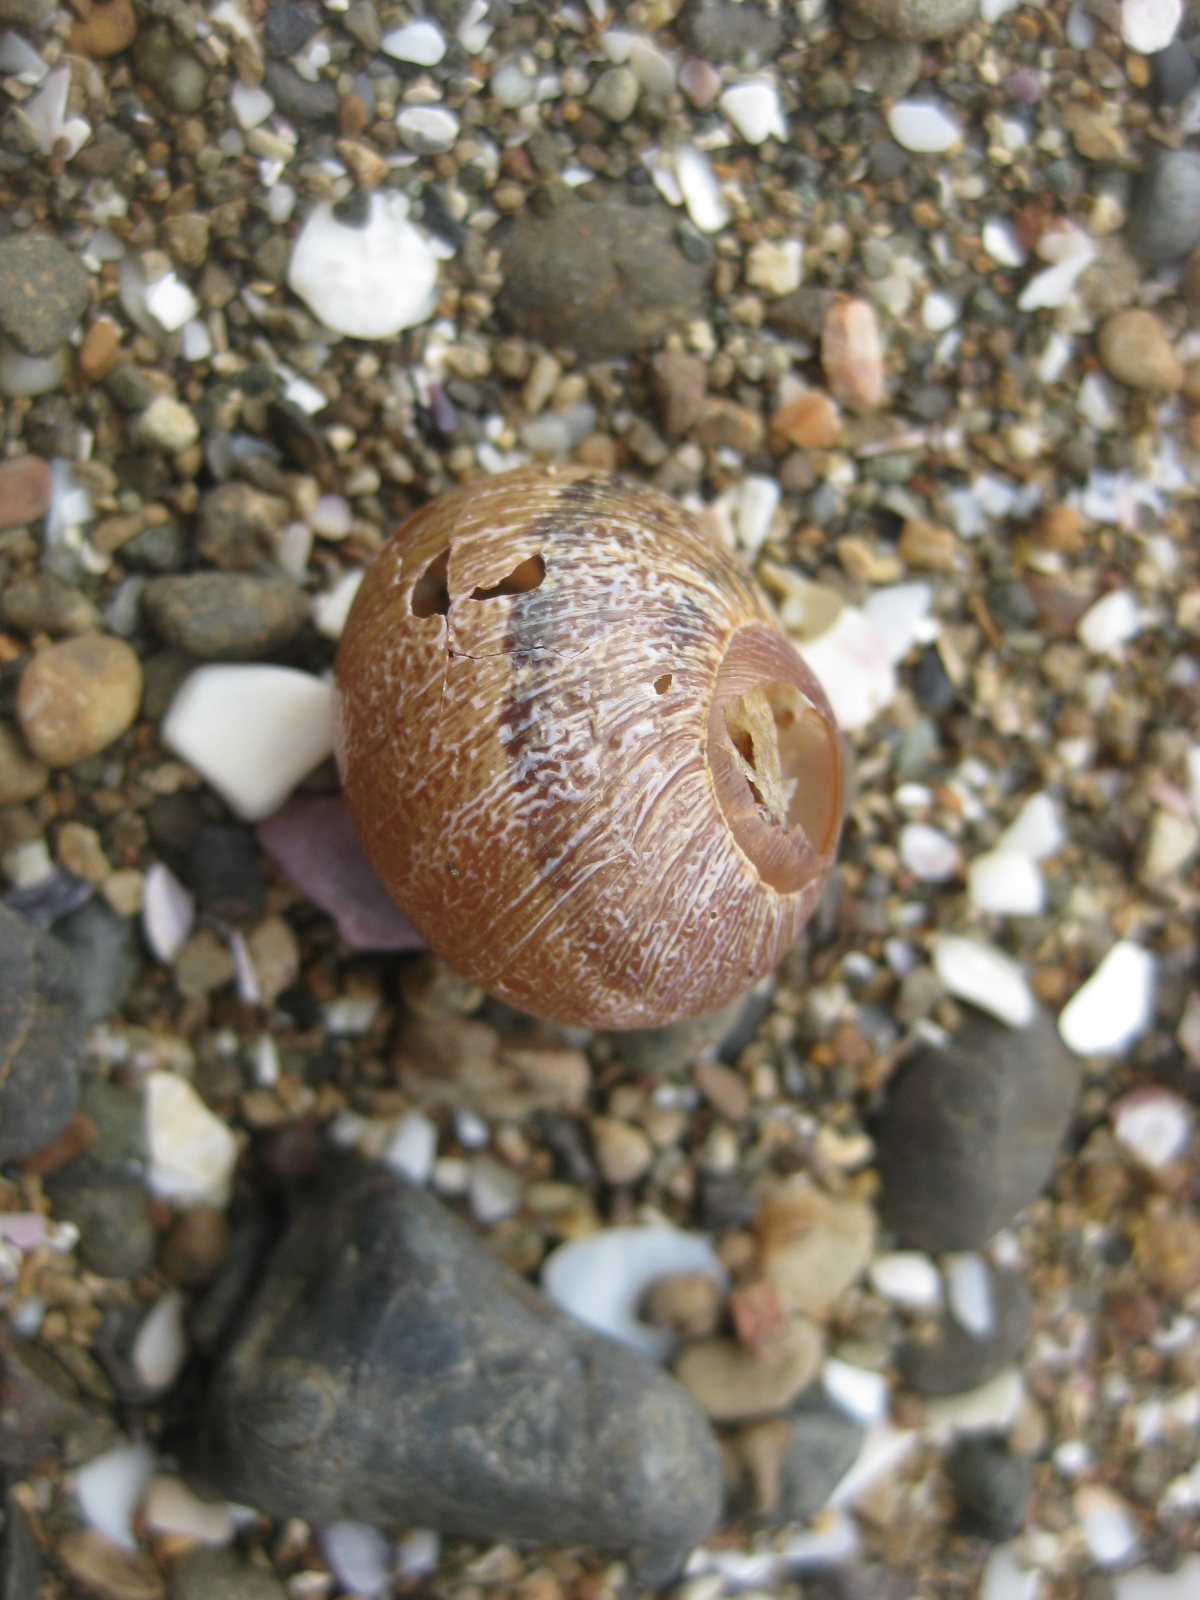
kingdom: Animalia
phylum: Mollusca
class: Gastropoda
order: Stylommatophora
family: Helicidae
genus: Cornu
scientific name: Cornu aspersum
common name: Brown garden snail
